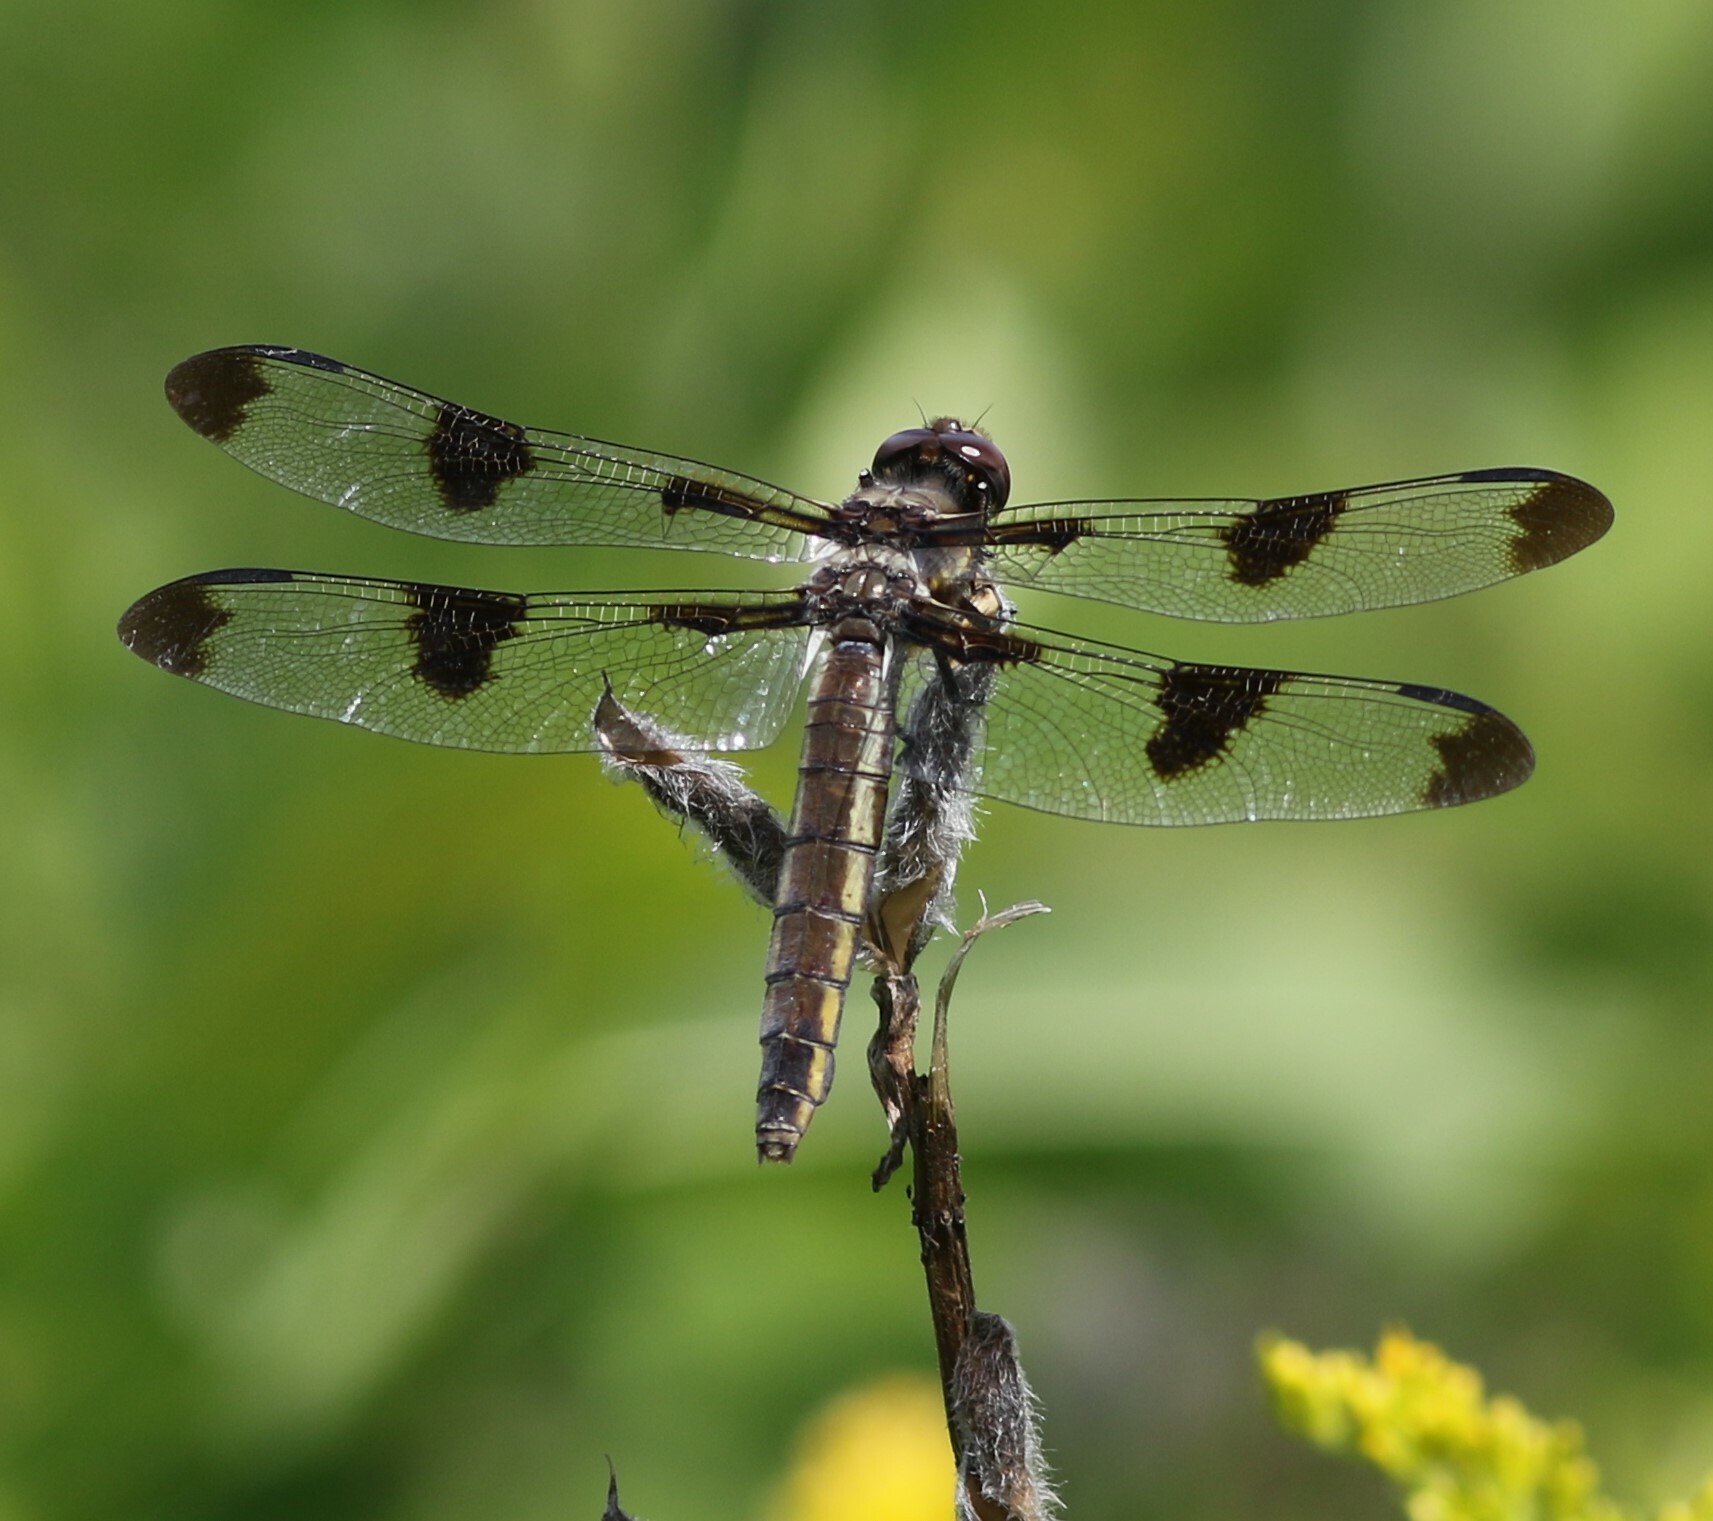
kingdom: Animalia
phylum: Arthropoda
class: Insecta
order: Odonata
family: Libellulidae
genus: Libellula
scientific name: Libellula pulchella
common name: Twelve-spotted skimmer
